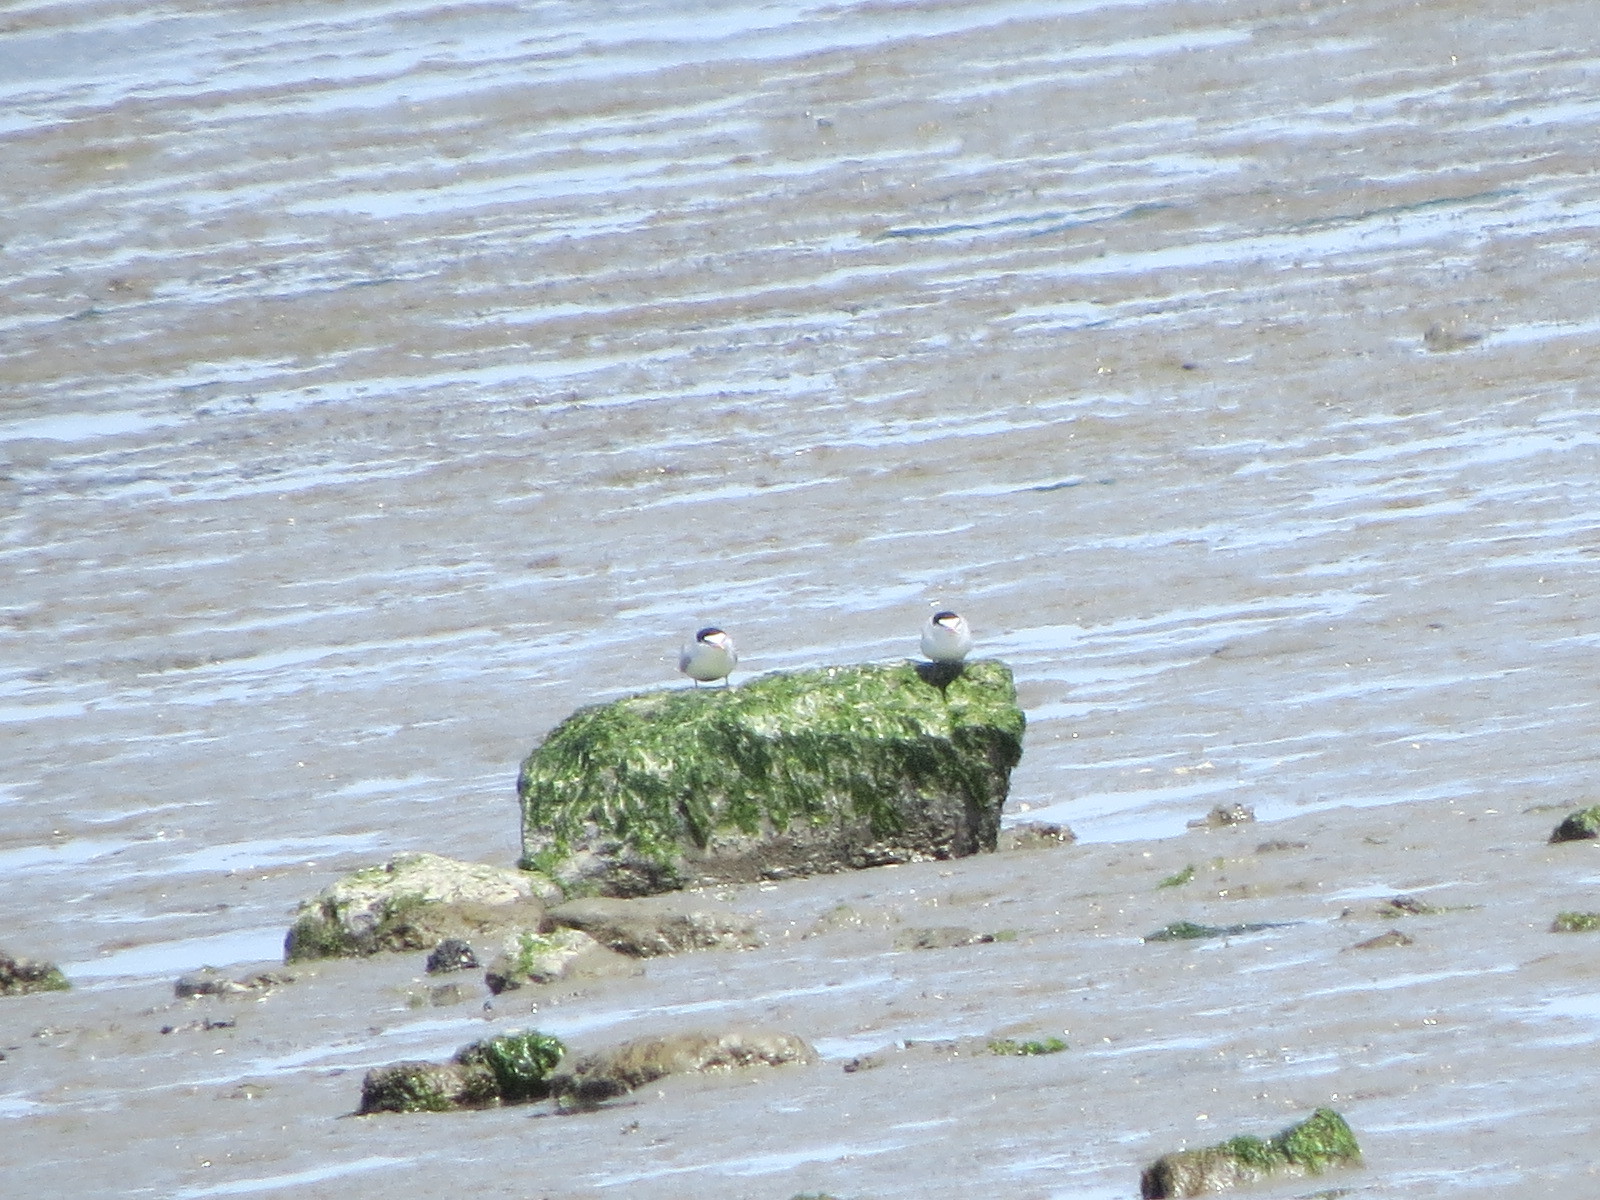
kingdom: Animalia
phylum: Chordata
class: Aves
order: Charadriiformes
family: Laridae
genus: Sternula
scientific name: Sternula antillarum
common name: Least tern
